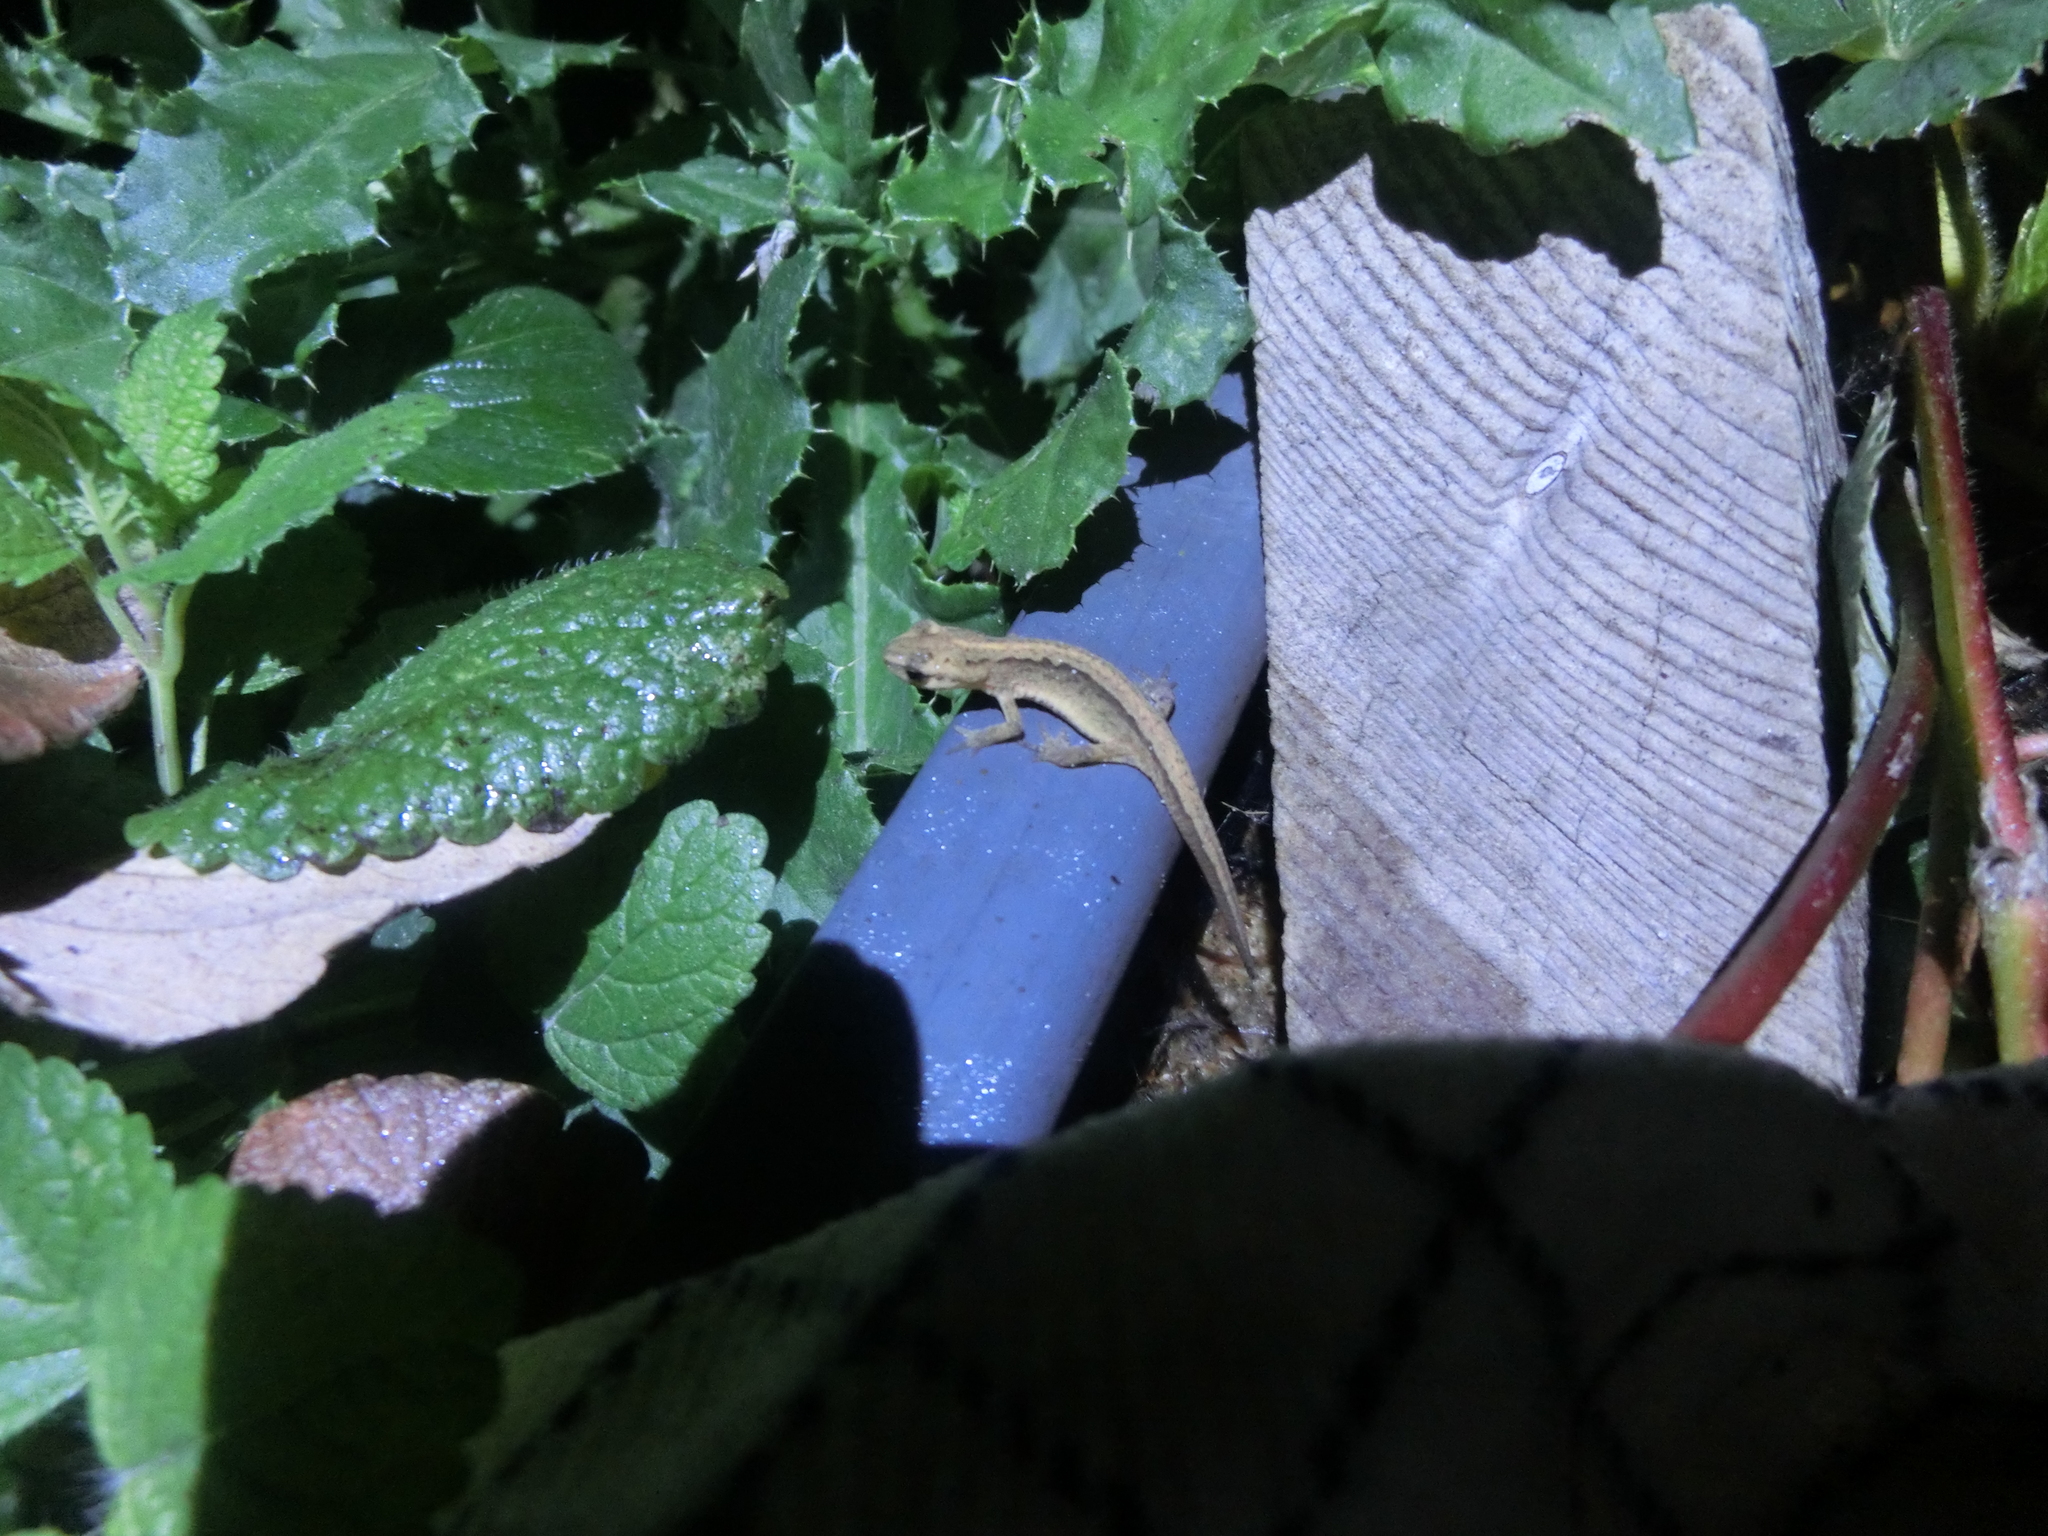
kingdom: Animalia
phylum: Chordata
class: Amphibia
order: Caudata
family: Salamandridae
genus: Lissotriton
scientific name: Lissotriton vulgaris
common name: Smooth newt
